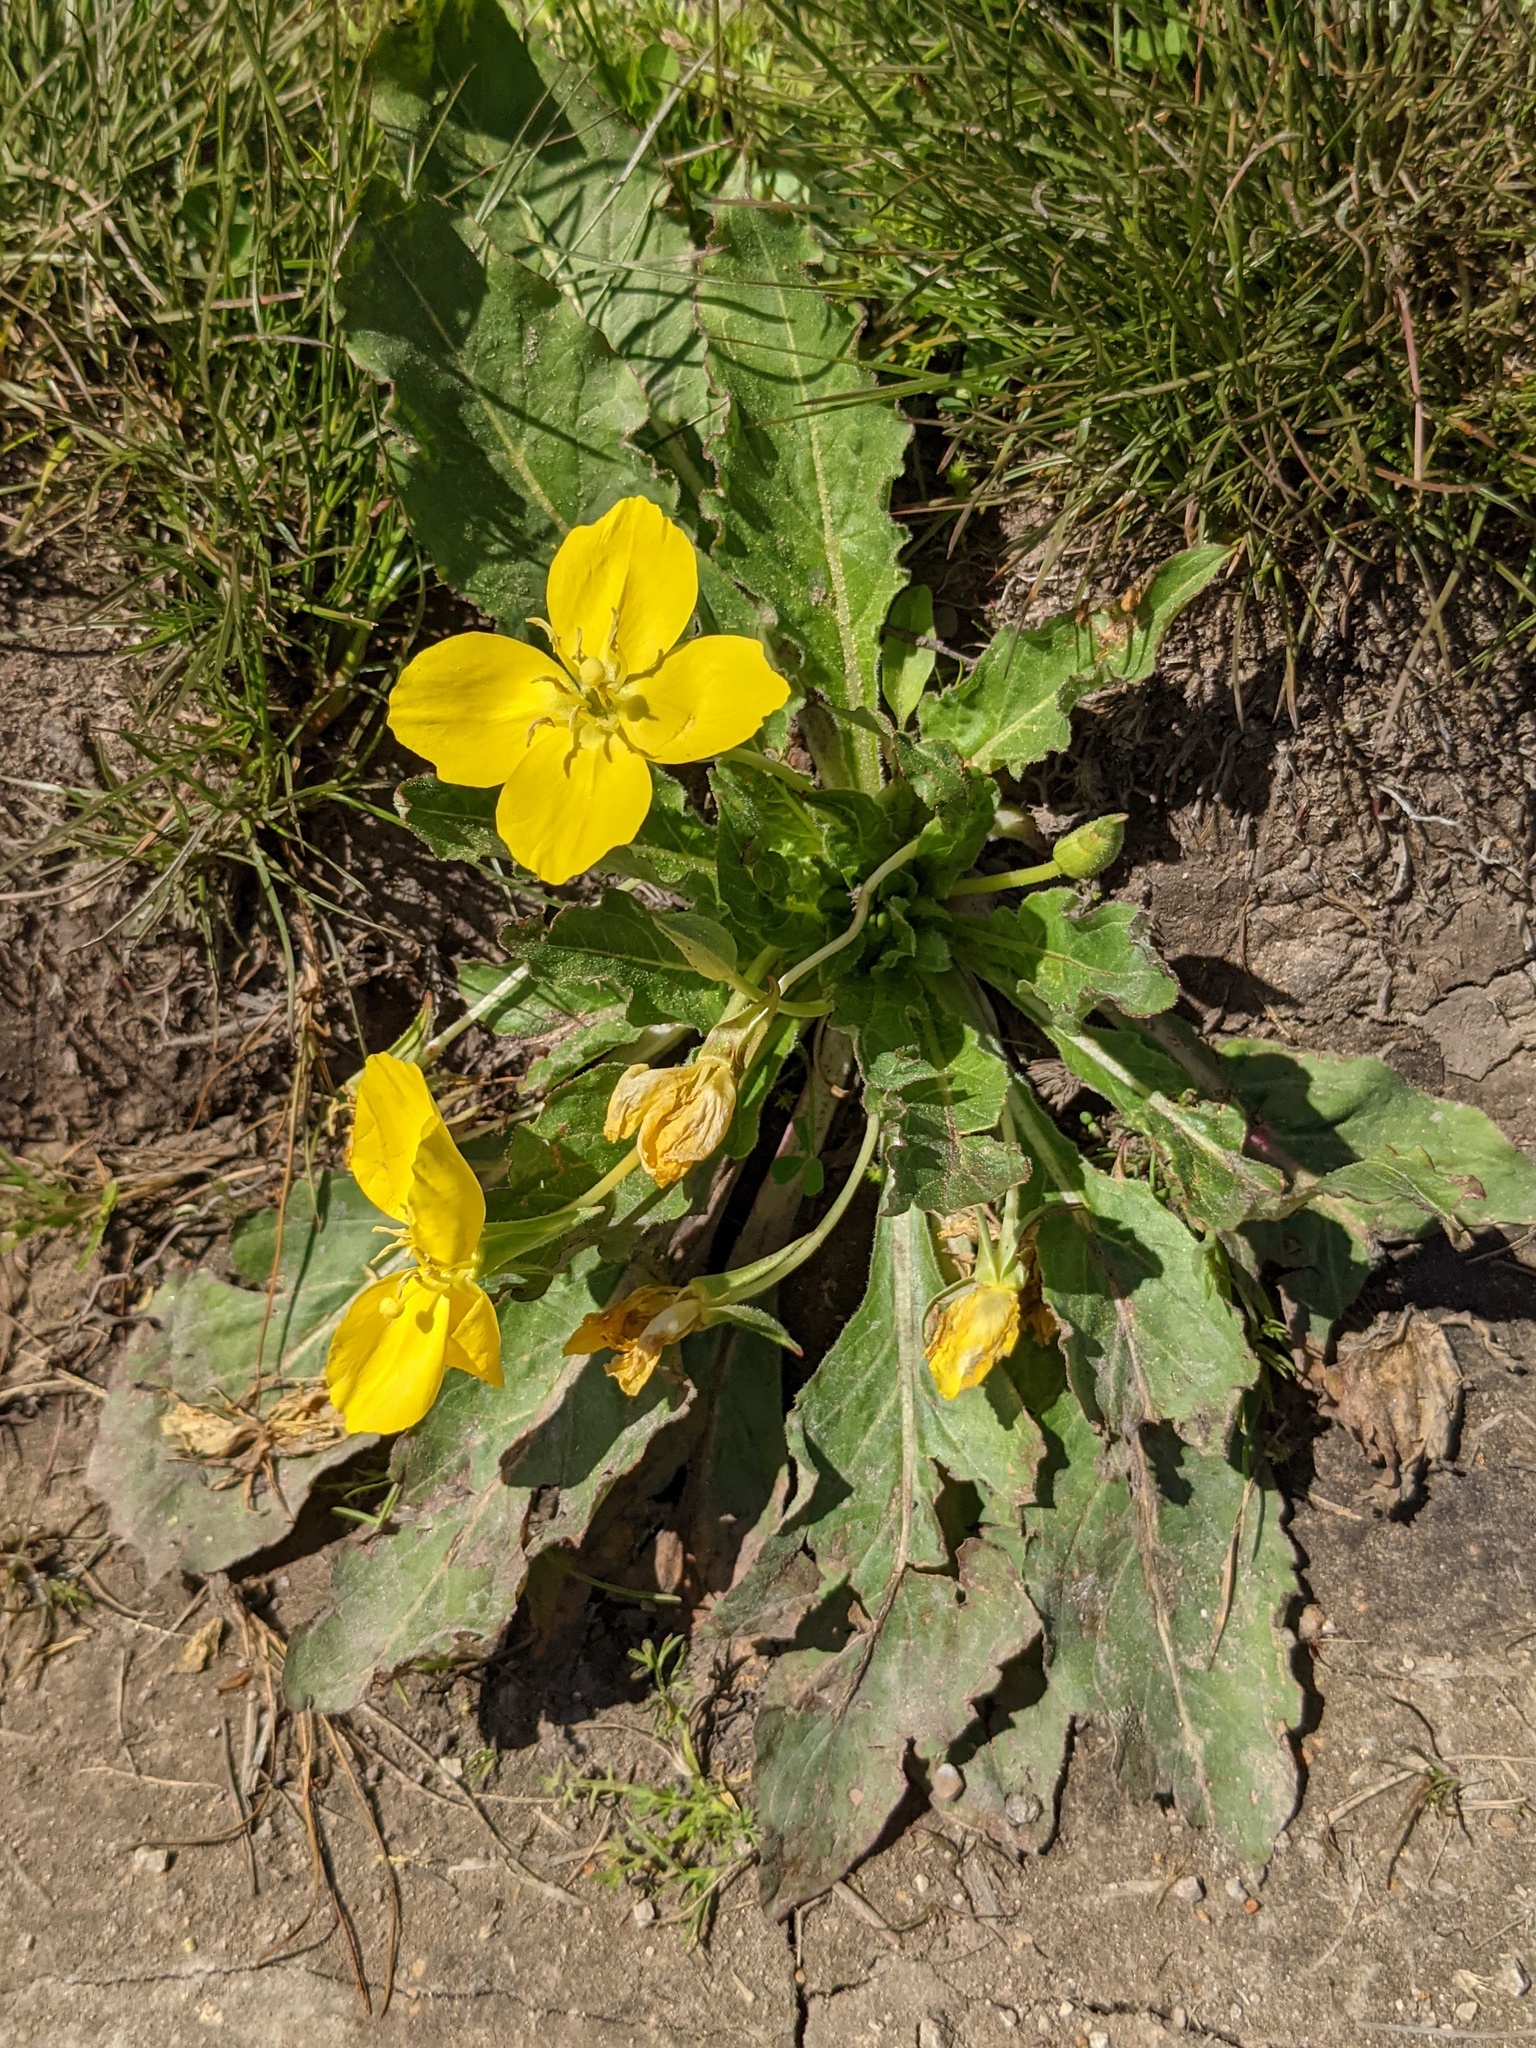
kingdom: Plantae
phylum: Tracheophyta
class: Magnoliopsida
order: Myrtales
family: Onagraceae
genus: Taraxia
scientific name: Taraxia ovata
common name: Goldeneggs
